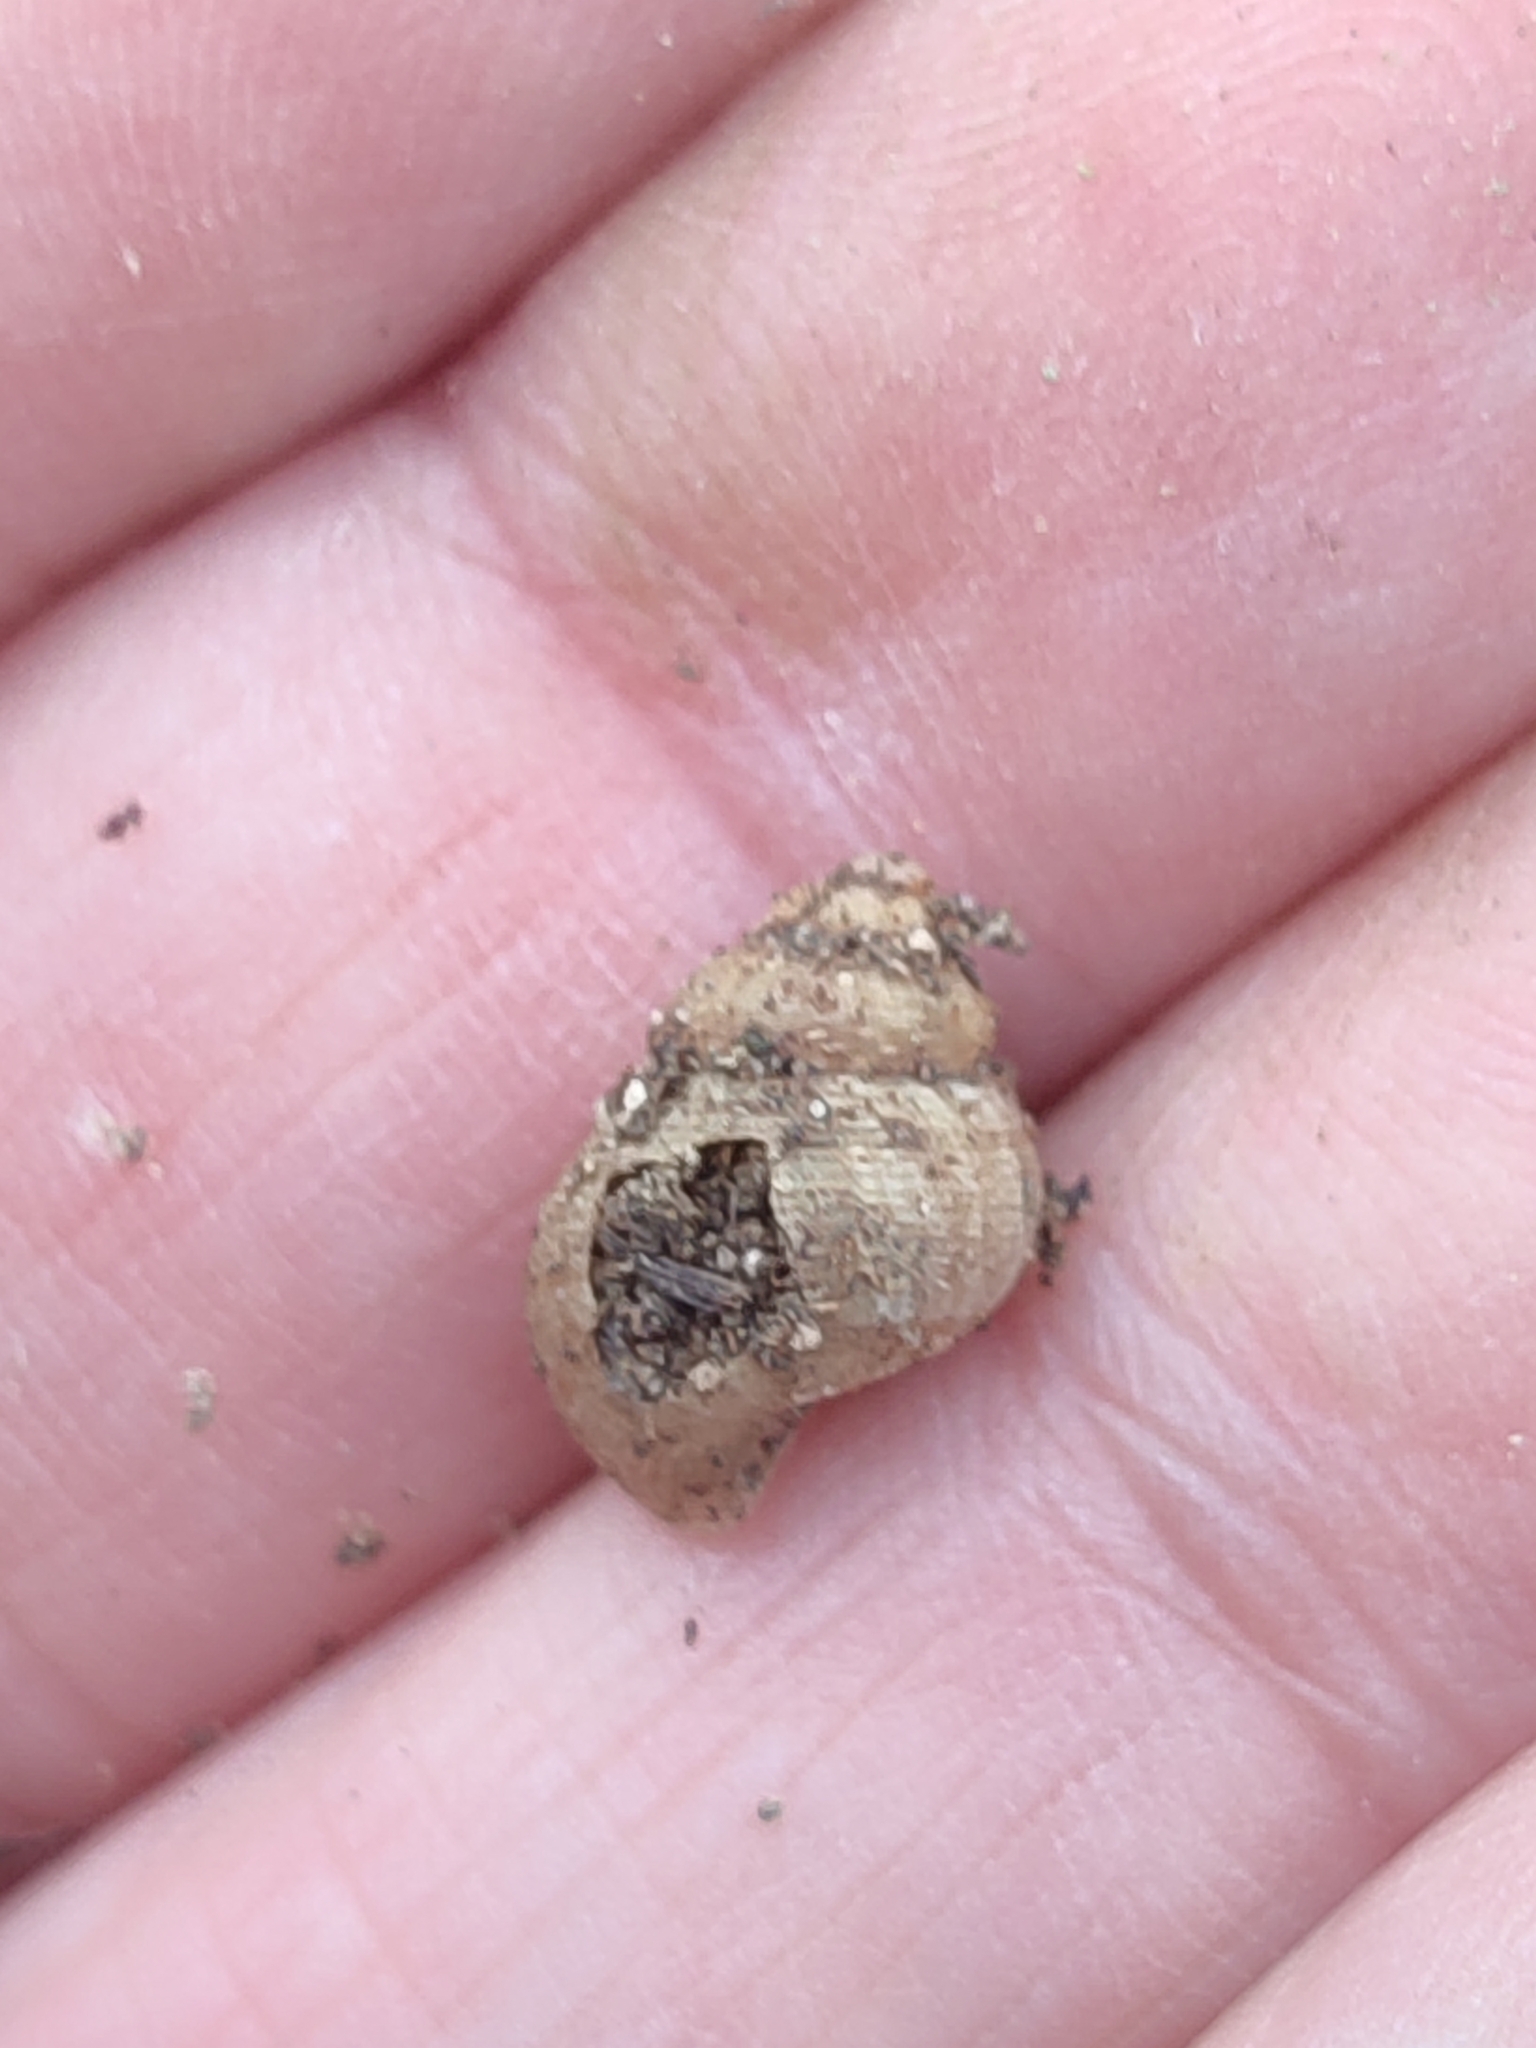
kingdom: Animalia
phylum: Mollusca
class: Gastropoda
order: Littorinimorpha
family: Pomatiidae
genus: Pomatias
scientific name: Pomatias elegans
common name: Red-mouthed snail
